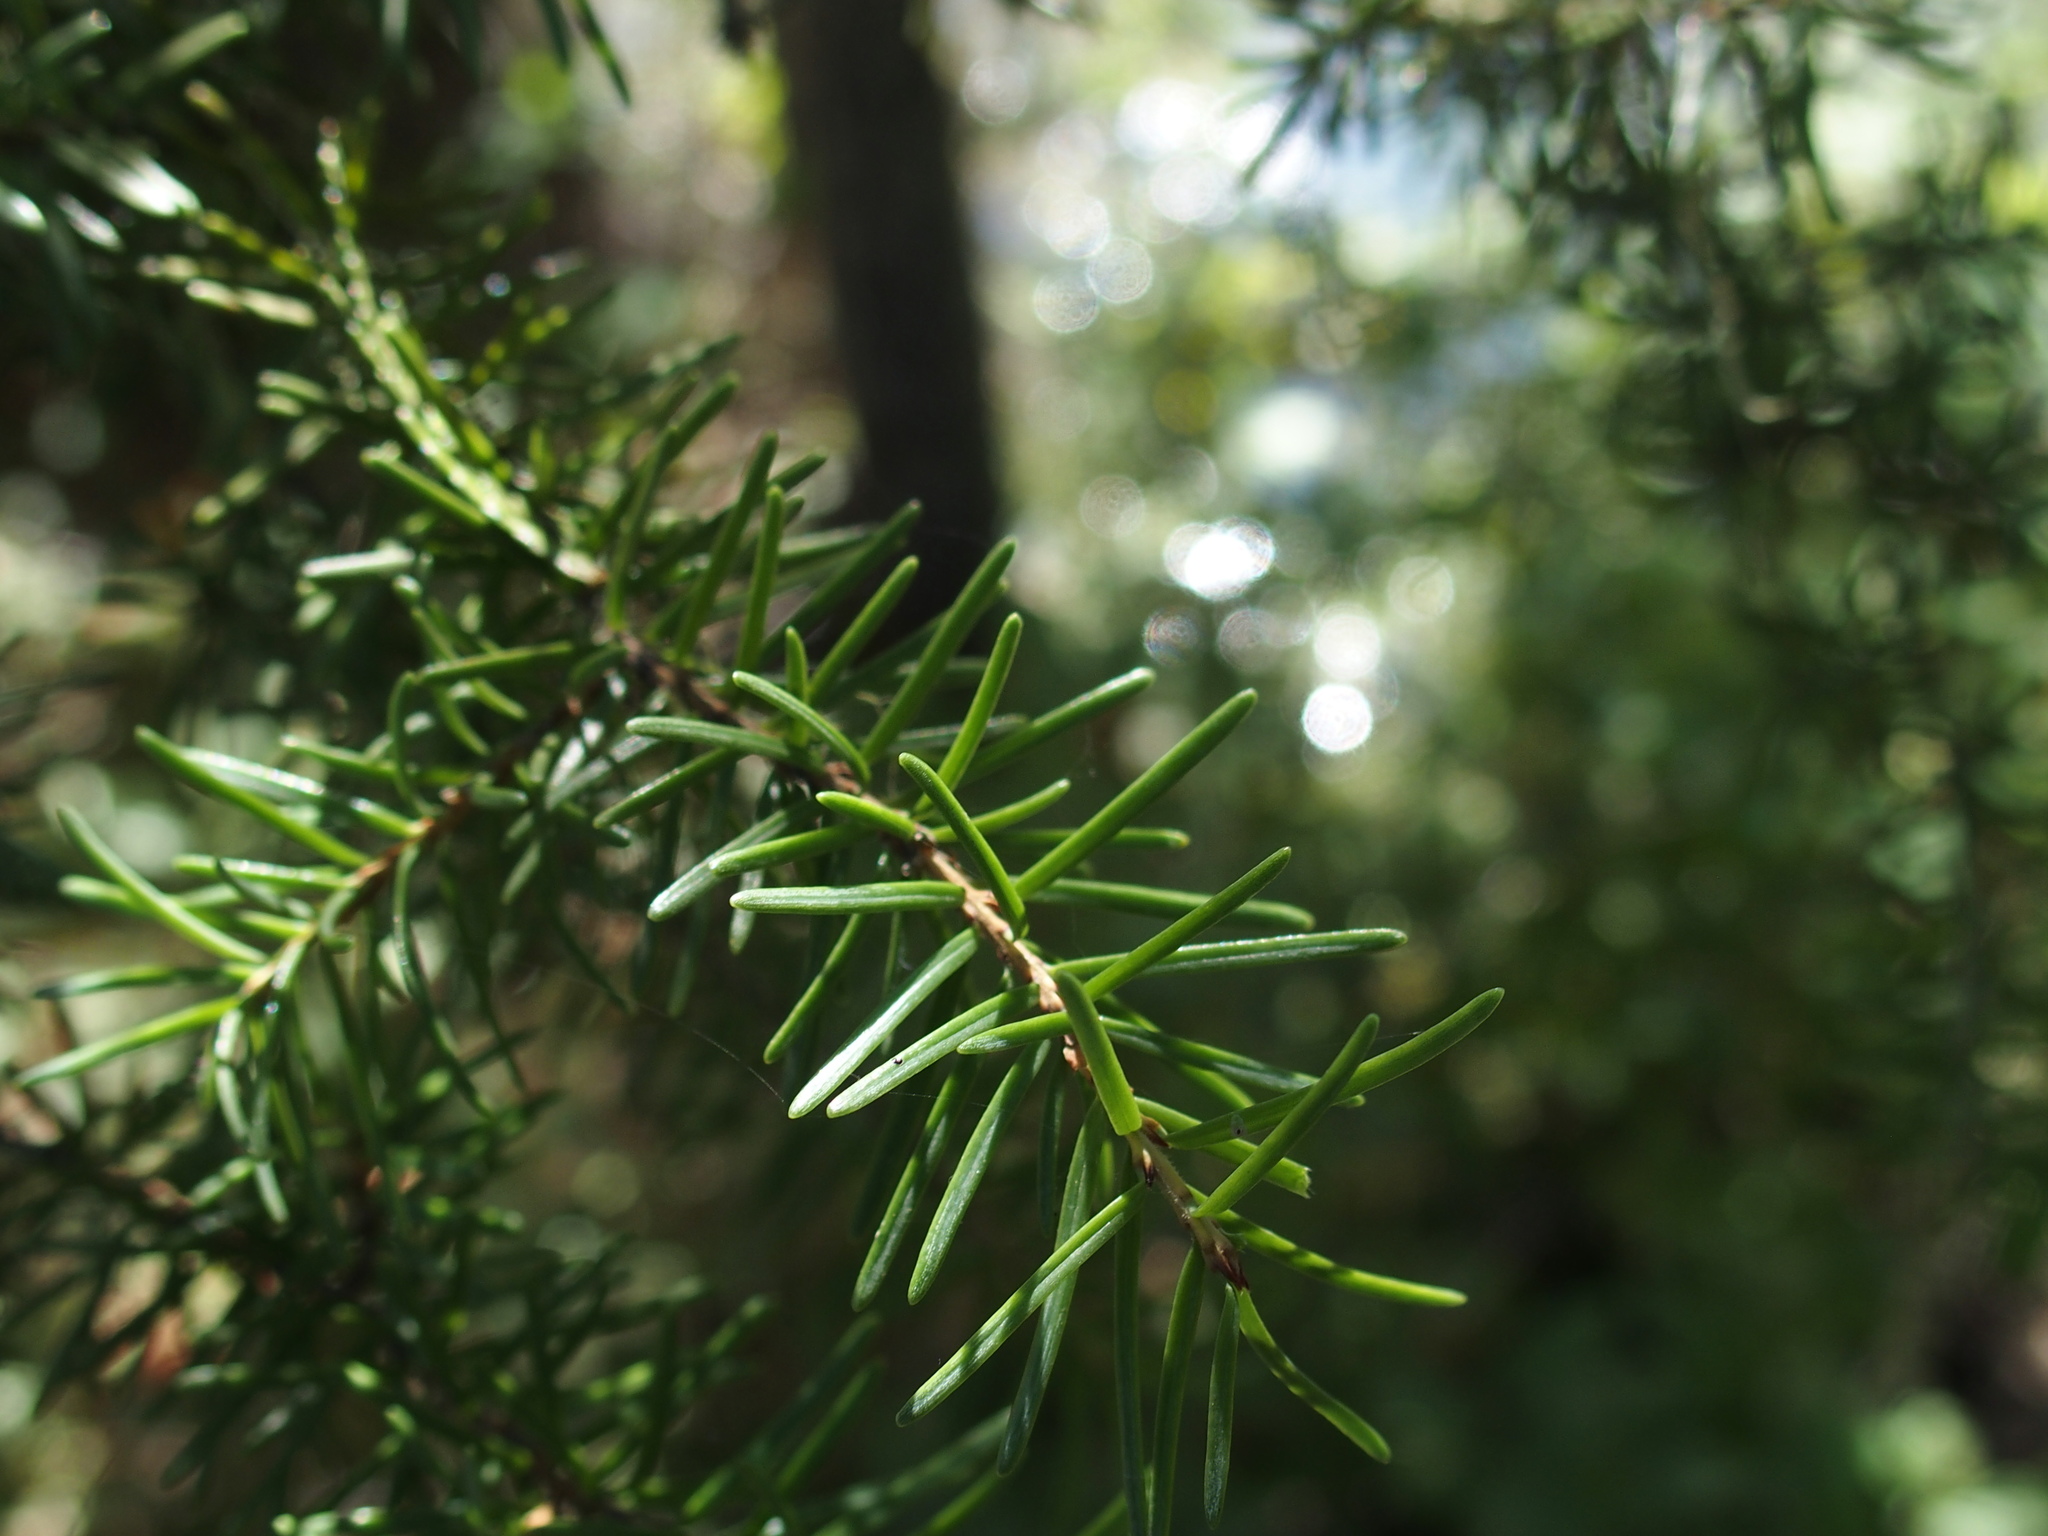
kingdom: Plantae
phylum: Tracheophyta
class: Pinopsida
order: Pinales
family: Pinaceae
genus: Pseudotsuga
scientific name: Pseudotsuga menziesii
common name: Douglas fir
